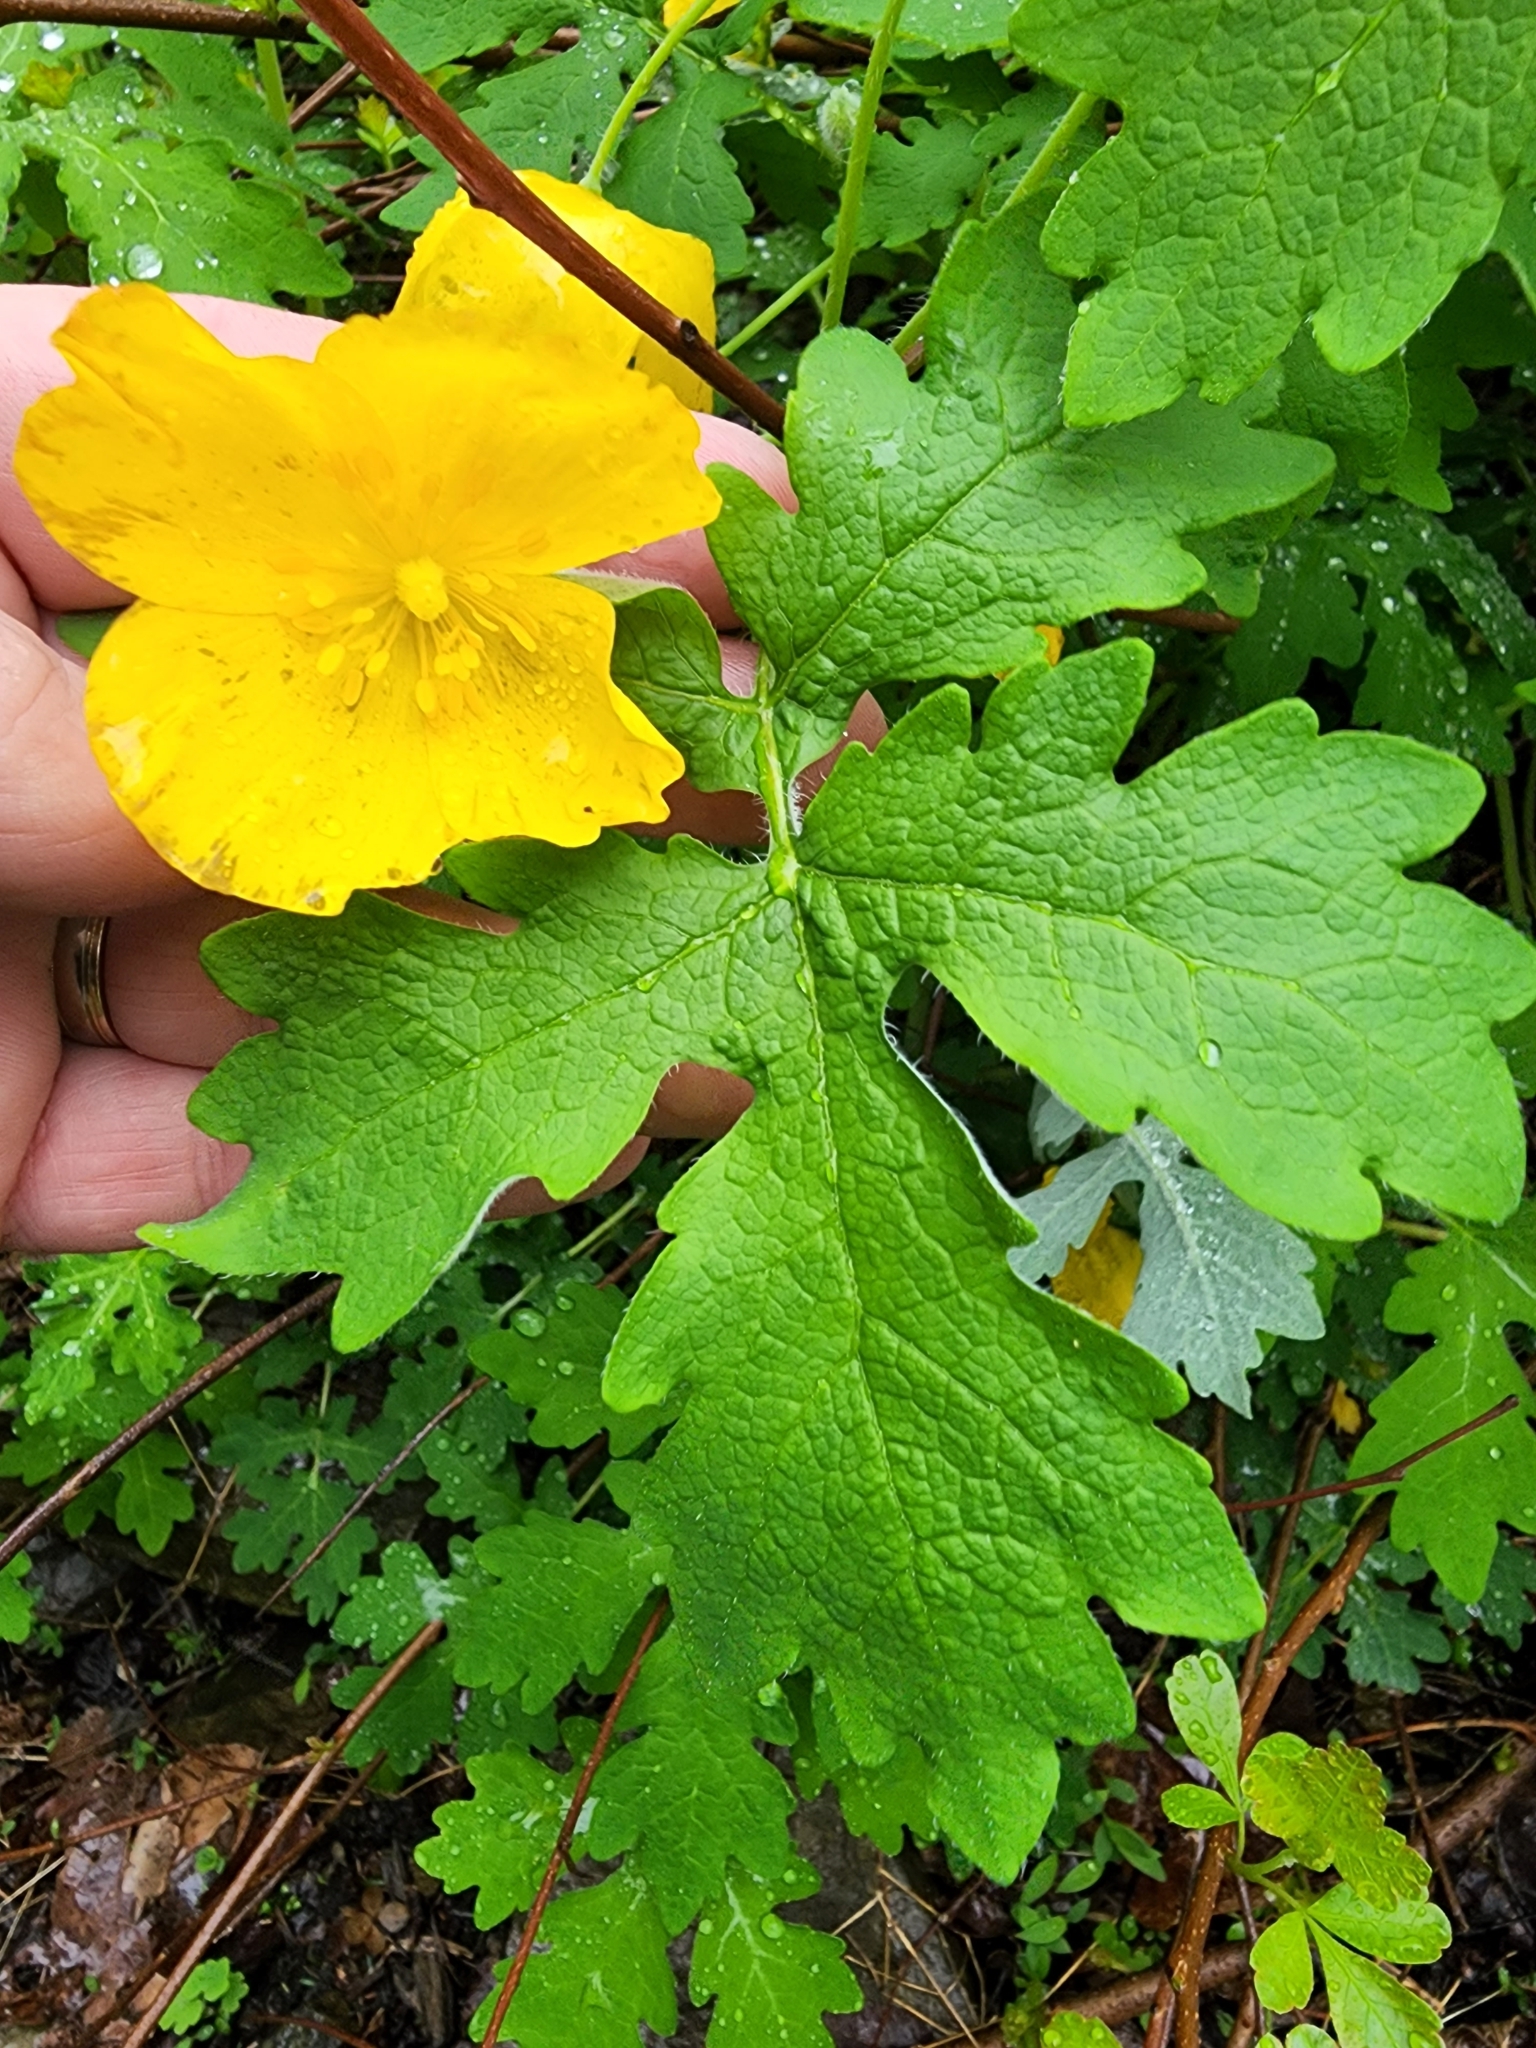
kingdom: Plantae
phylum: Tracheophyta
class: Magnoliopsida
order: Ranunculales
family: Papaveraceae
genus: Stylophorum
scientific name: Stylophorum diphyllum
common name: Celandine poppy
